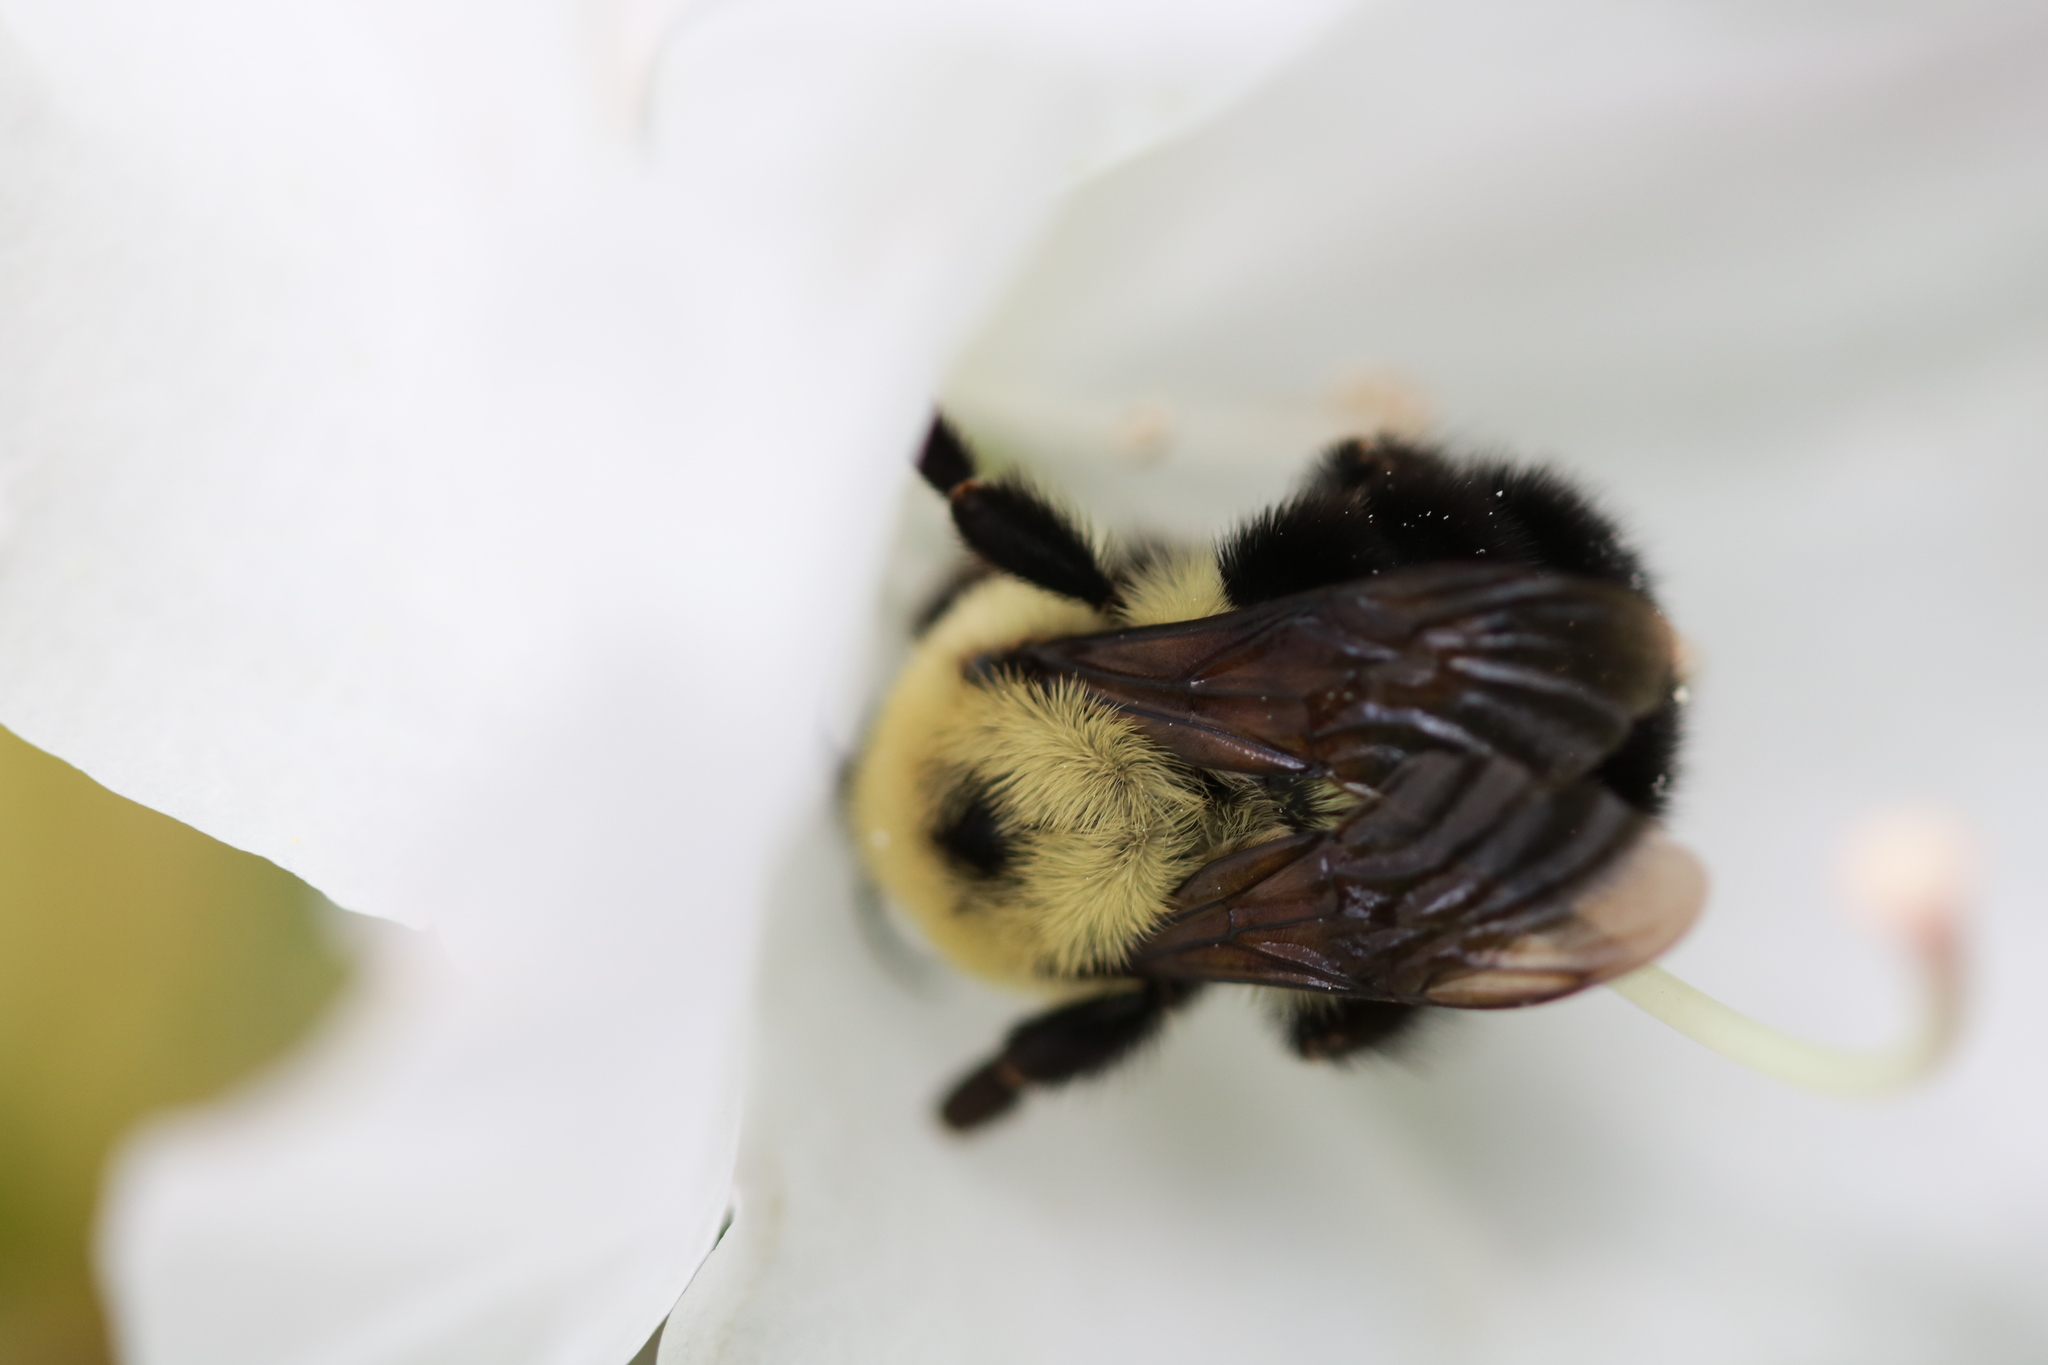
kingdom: Animalia
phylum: Arthropoda
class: Insecta
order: Hymenoptera
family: Apidae
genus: Bombus
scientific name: Bombus bimaculatus
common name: Two-spotted bumble bee
